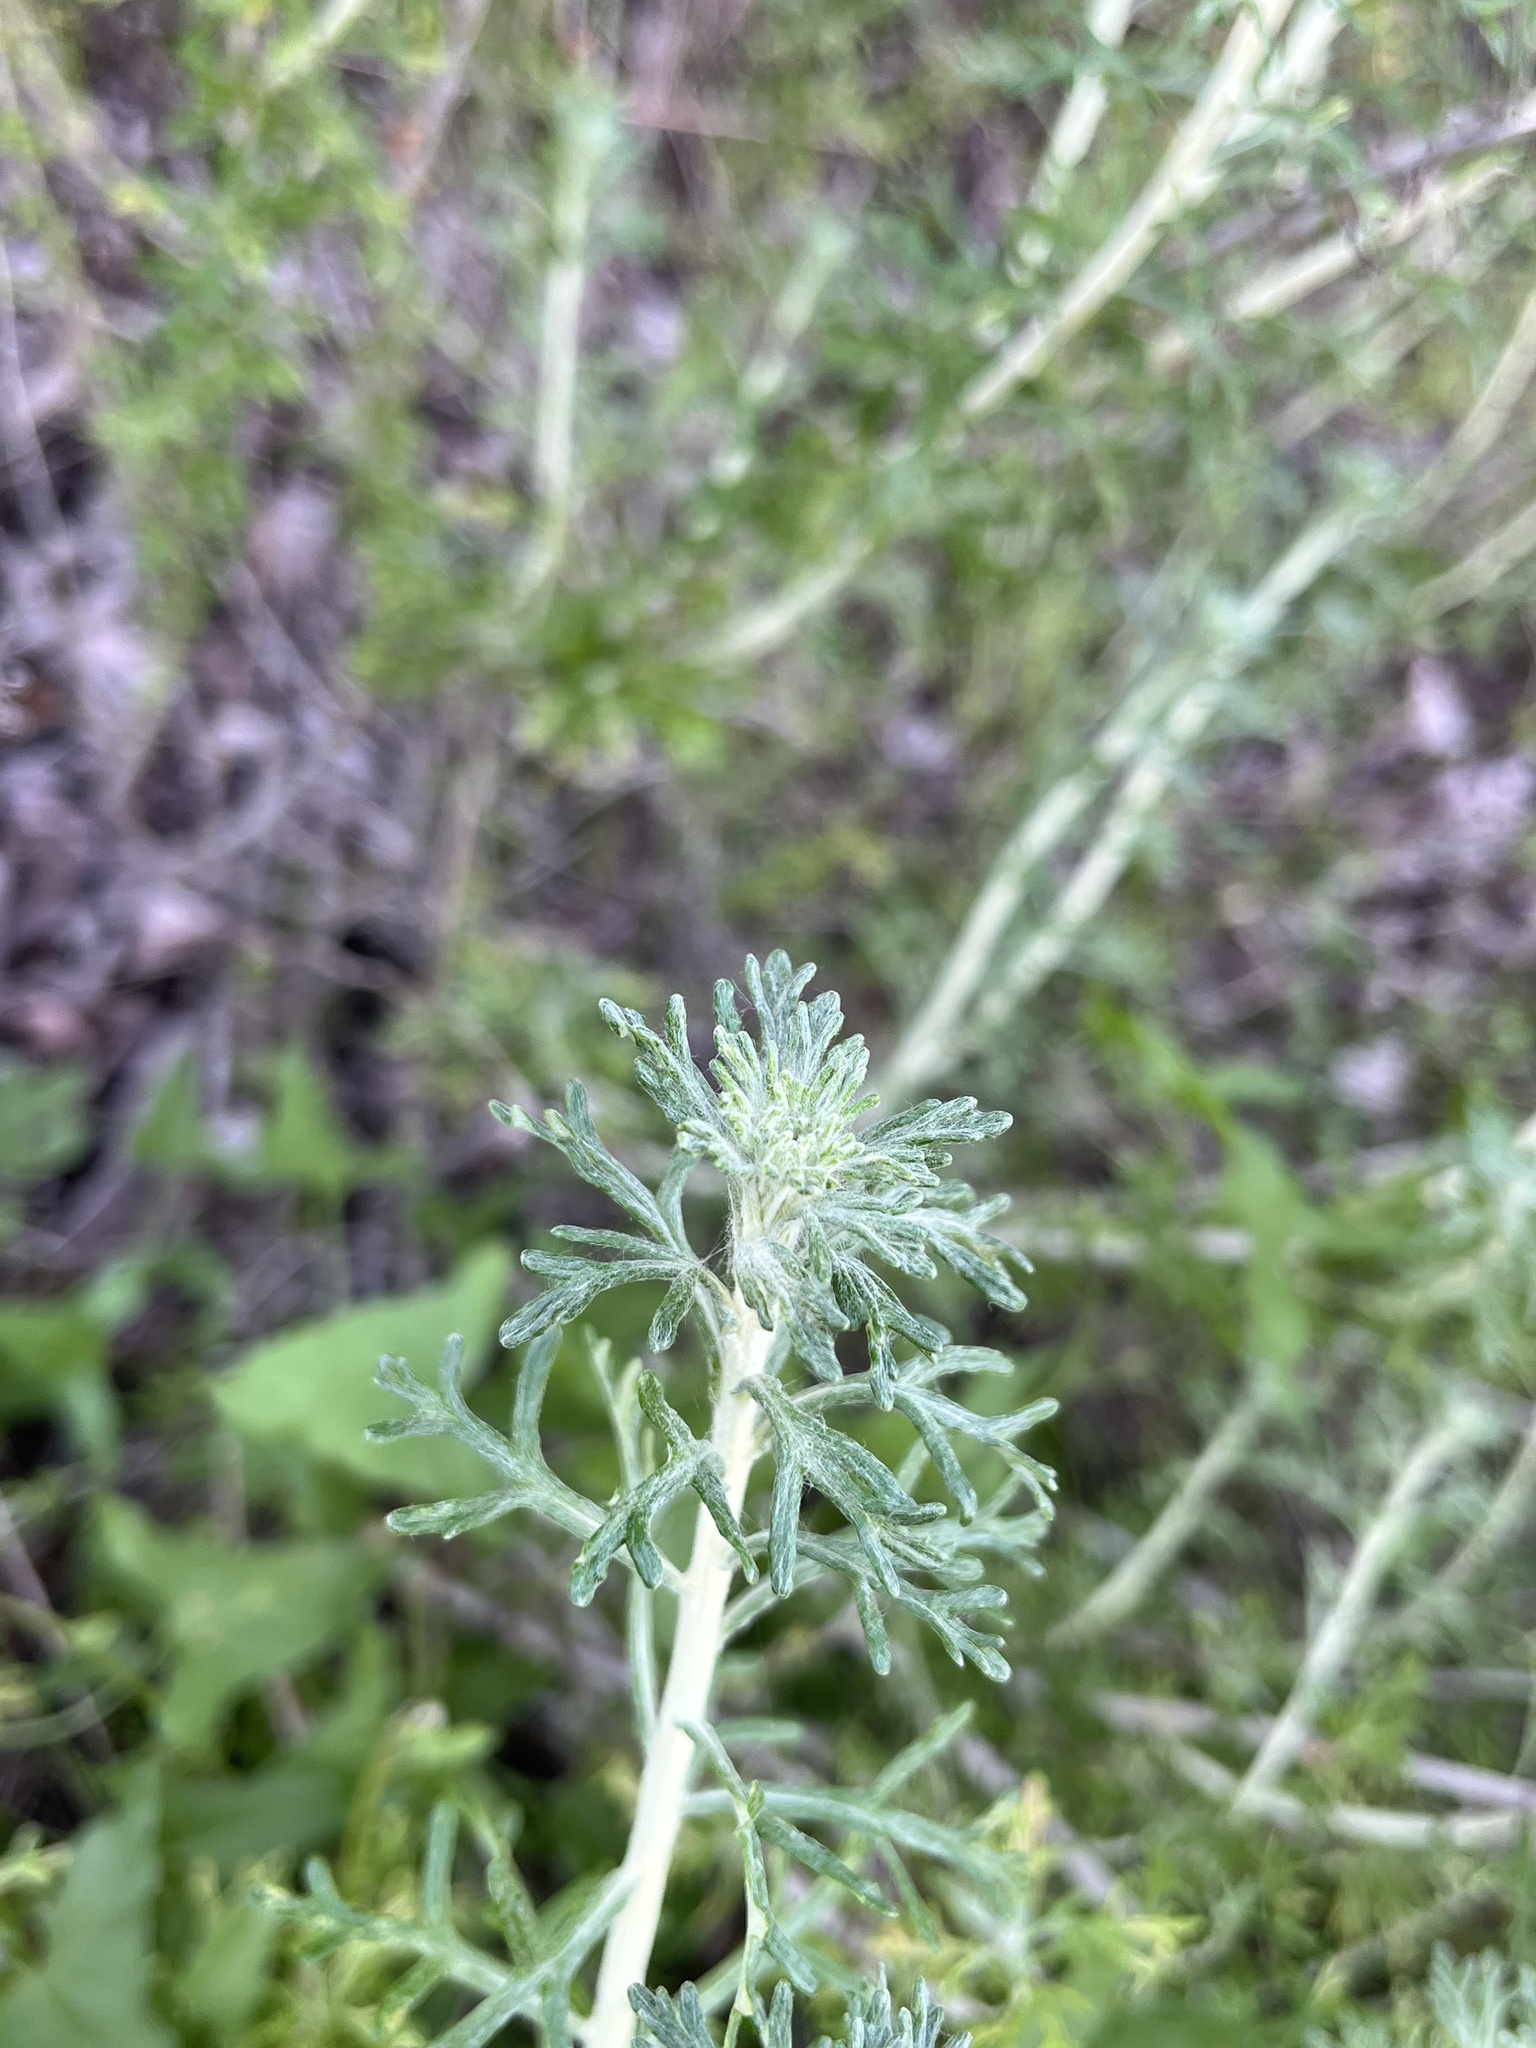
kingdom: Plantae
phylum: Tracheophyta
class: Magnoliopsida
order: Asterales
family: Asteraceae
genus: Eriophyllum
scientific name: Eriophyllum confertiflorum
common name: Golden-yarrow
